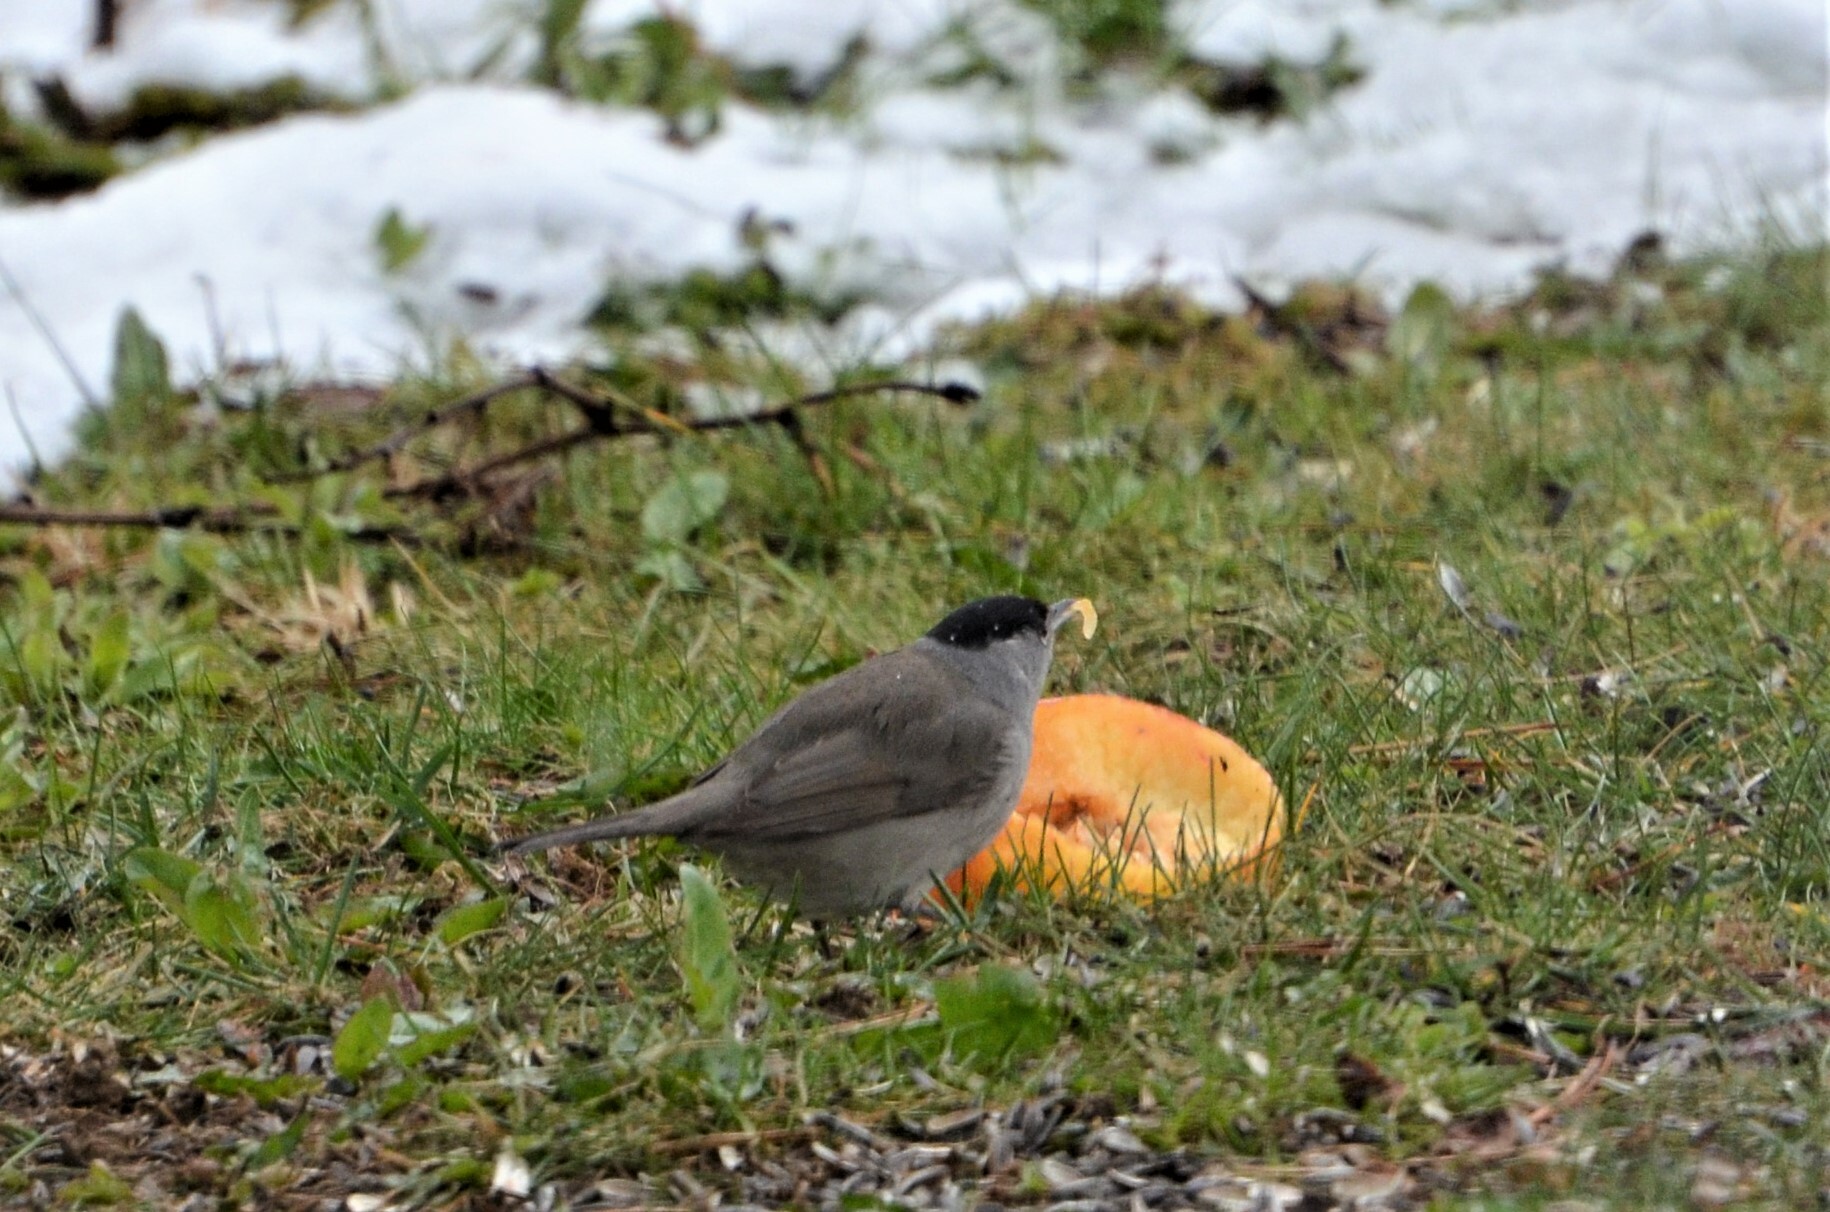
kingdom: Animalia
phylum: Chordata
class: Aves
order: Passeriformes
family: Sylviidae
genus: Sylvia
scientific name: Sylvia atricapilla
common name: Eurasian blackcap
